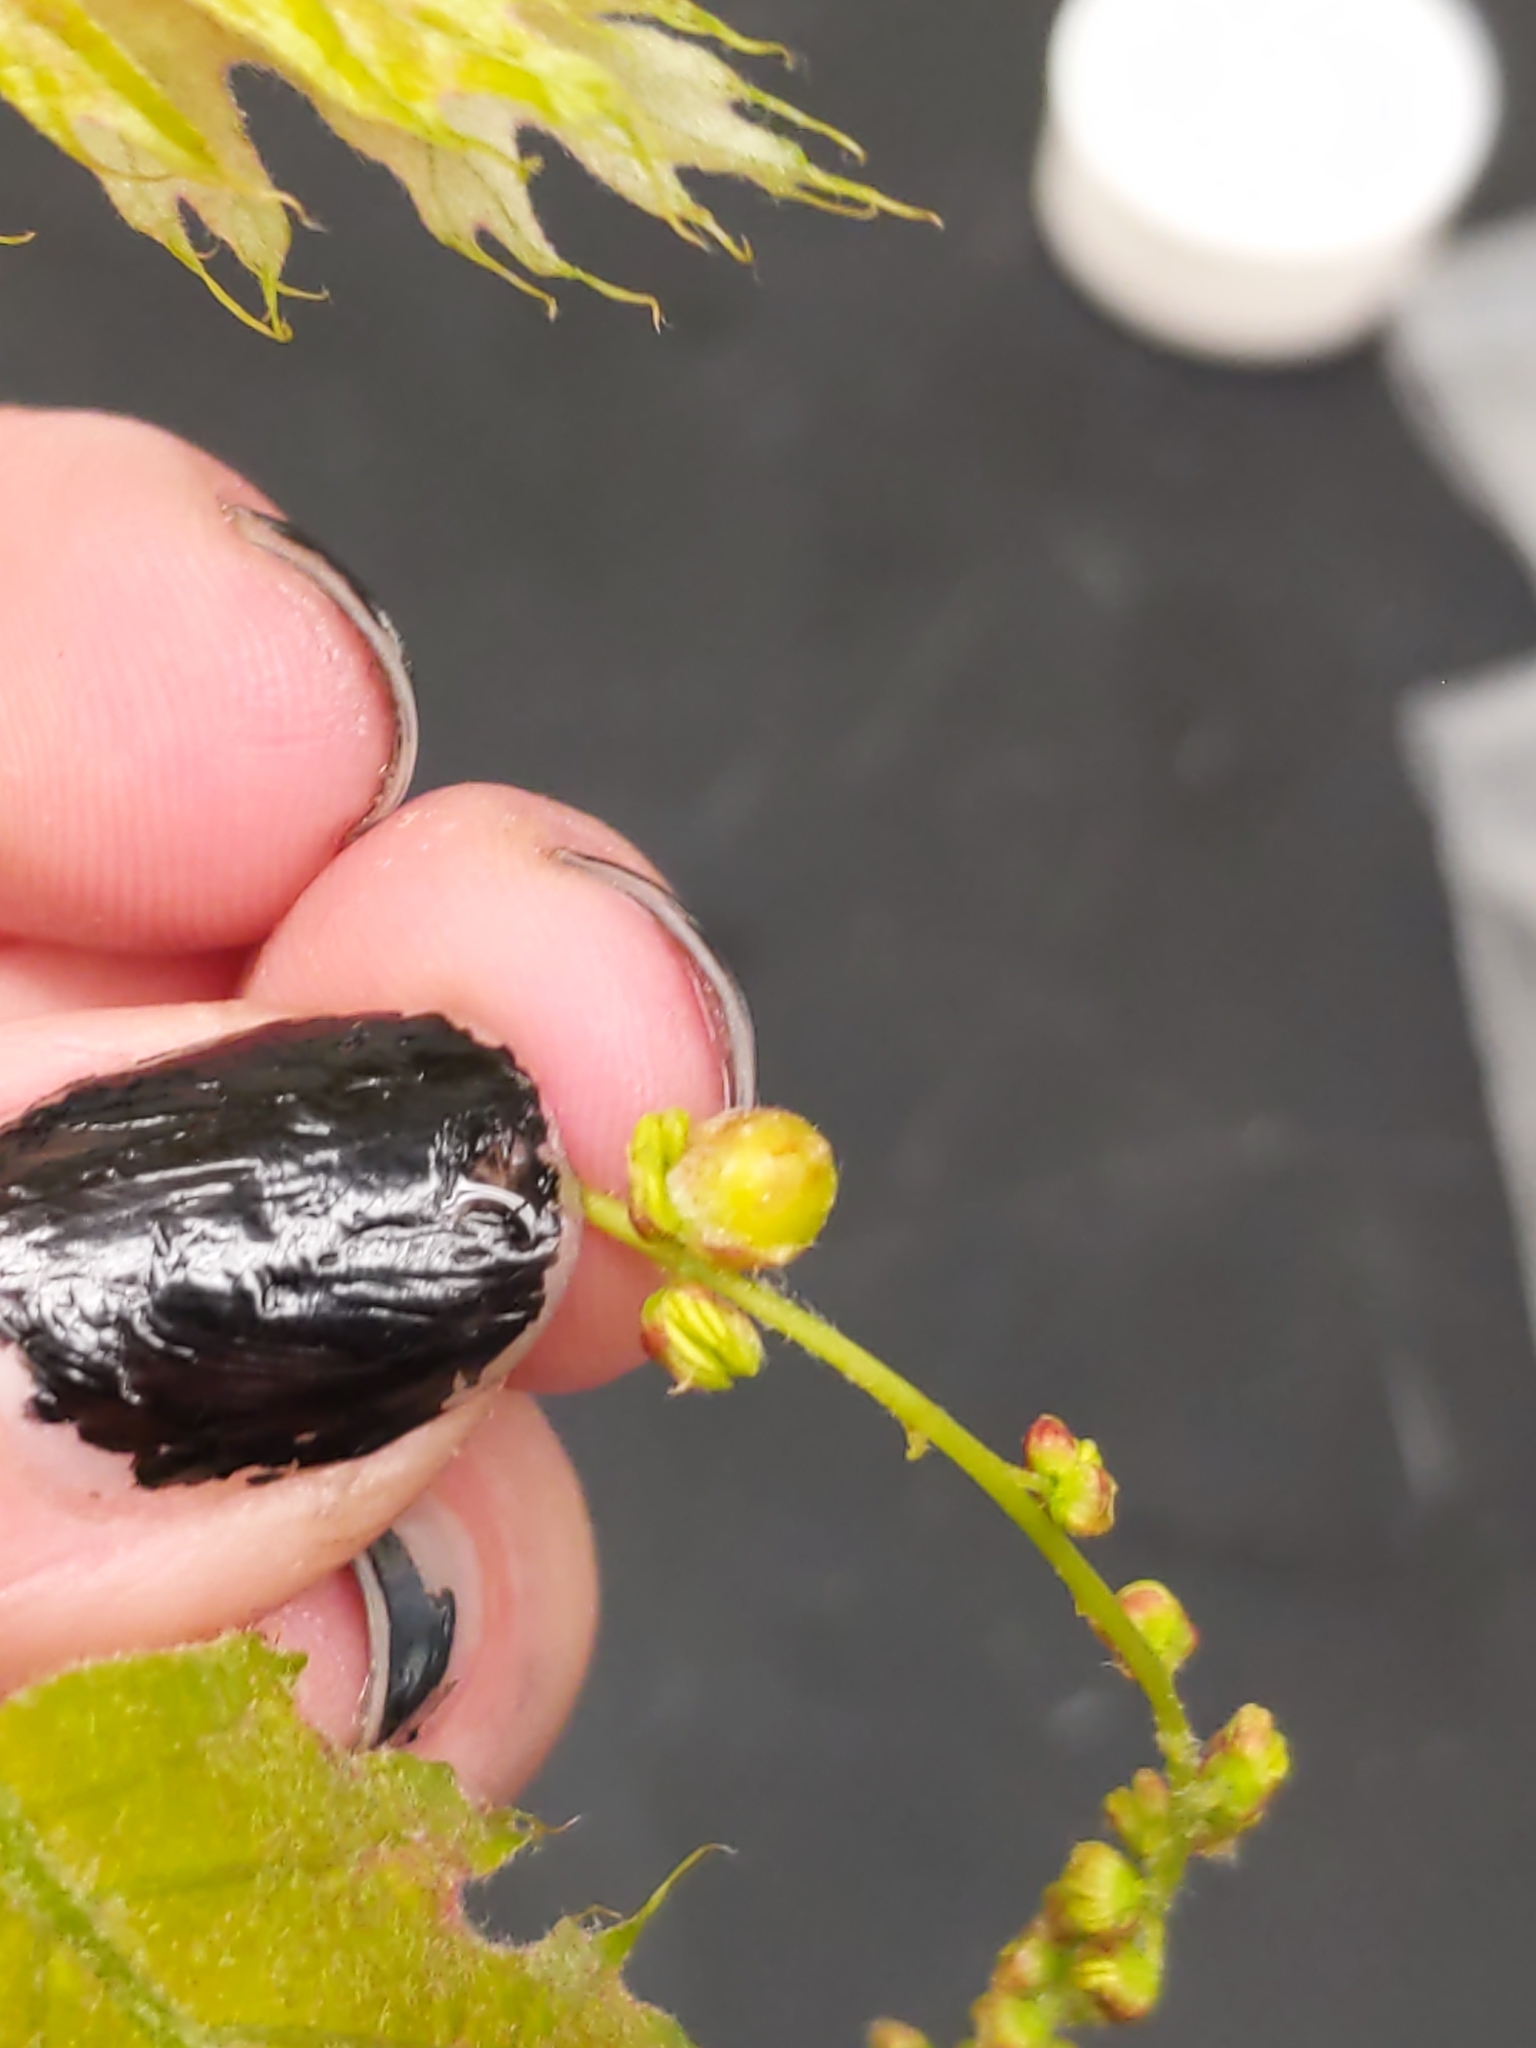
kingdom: Animalia
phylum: Arthropoda
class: Insecta
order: Hymenoptera
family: Cynipidae
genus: Dryocosmus
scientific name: Dryocosmus quercuspalustris
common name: Succulent oak gall wasp
